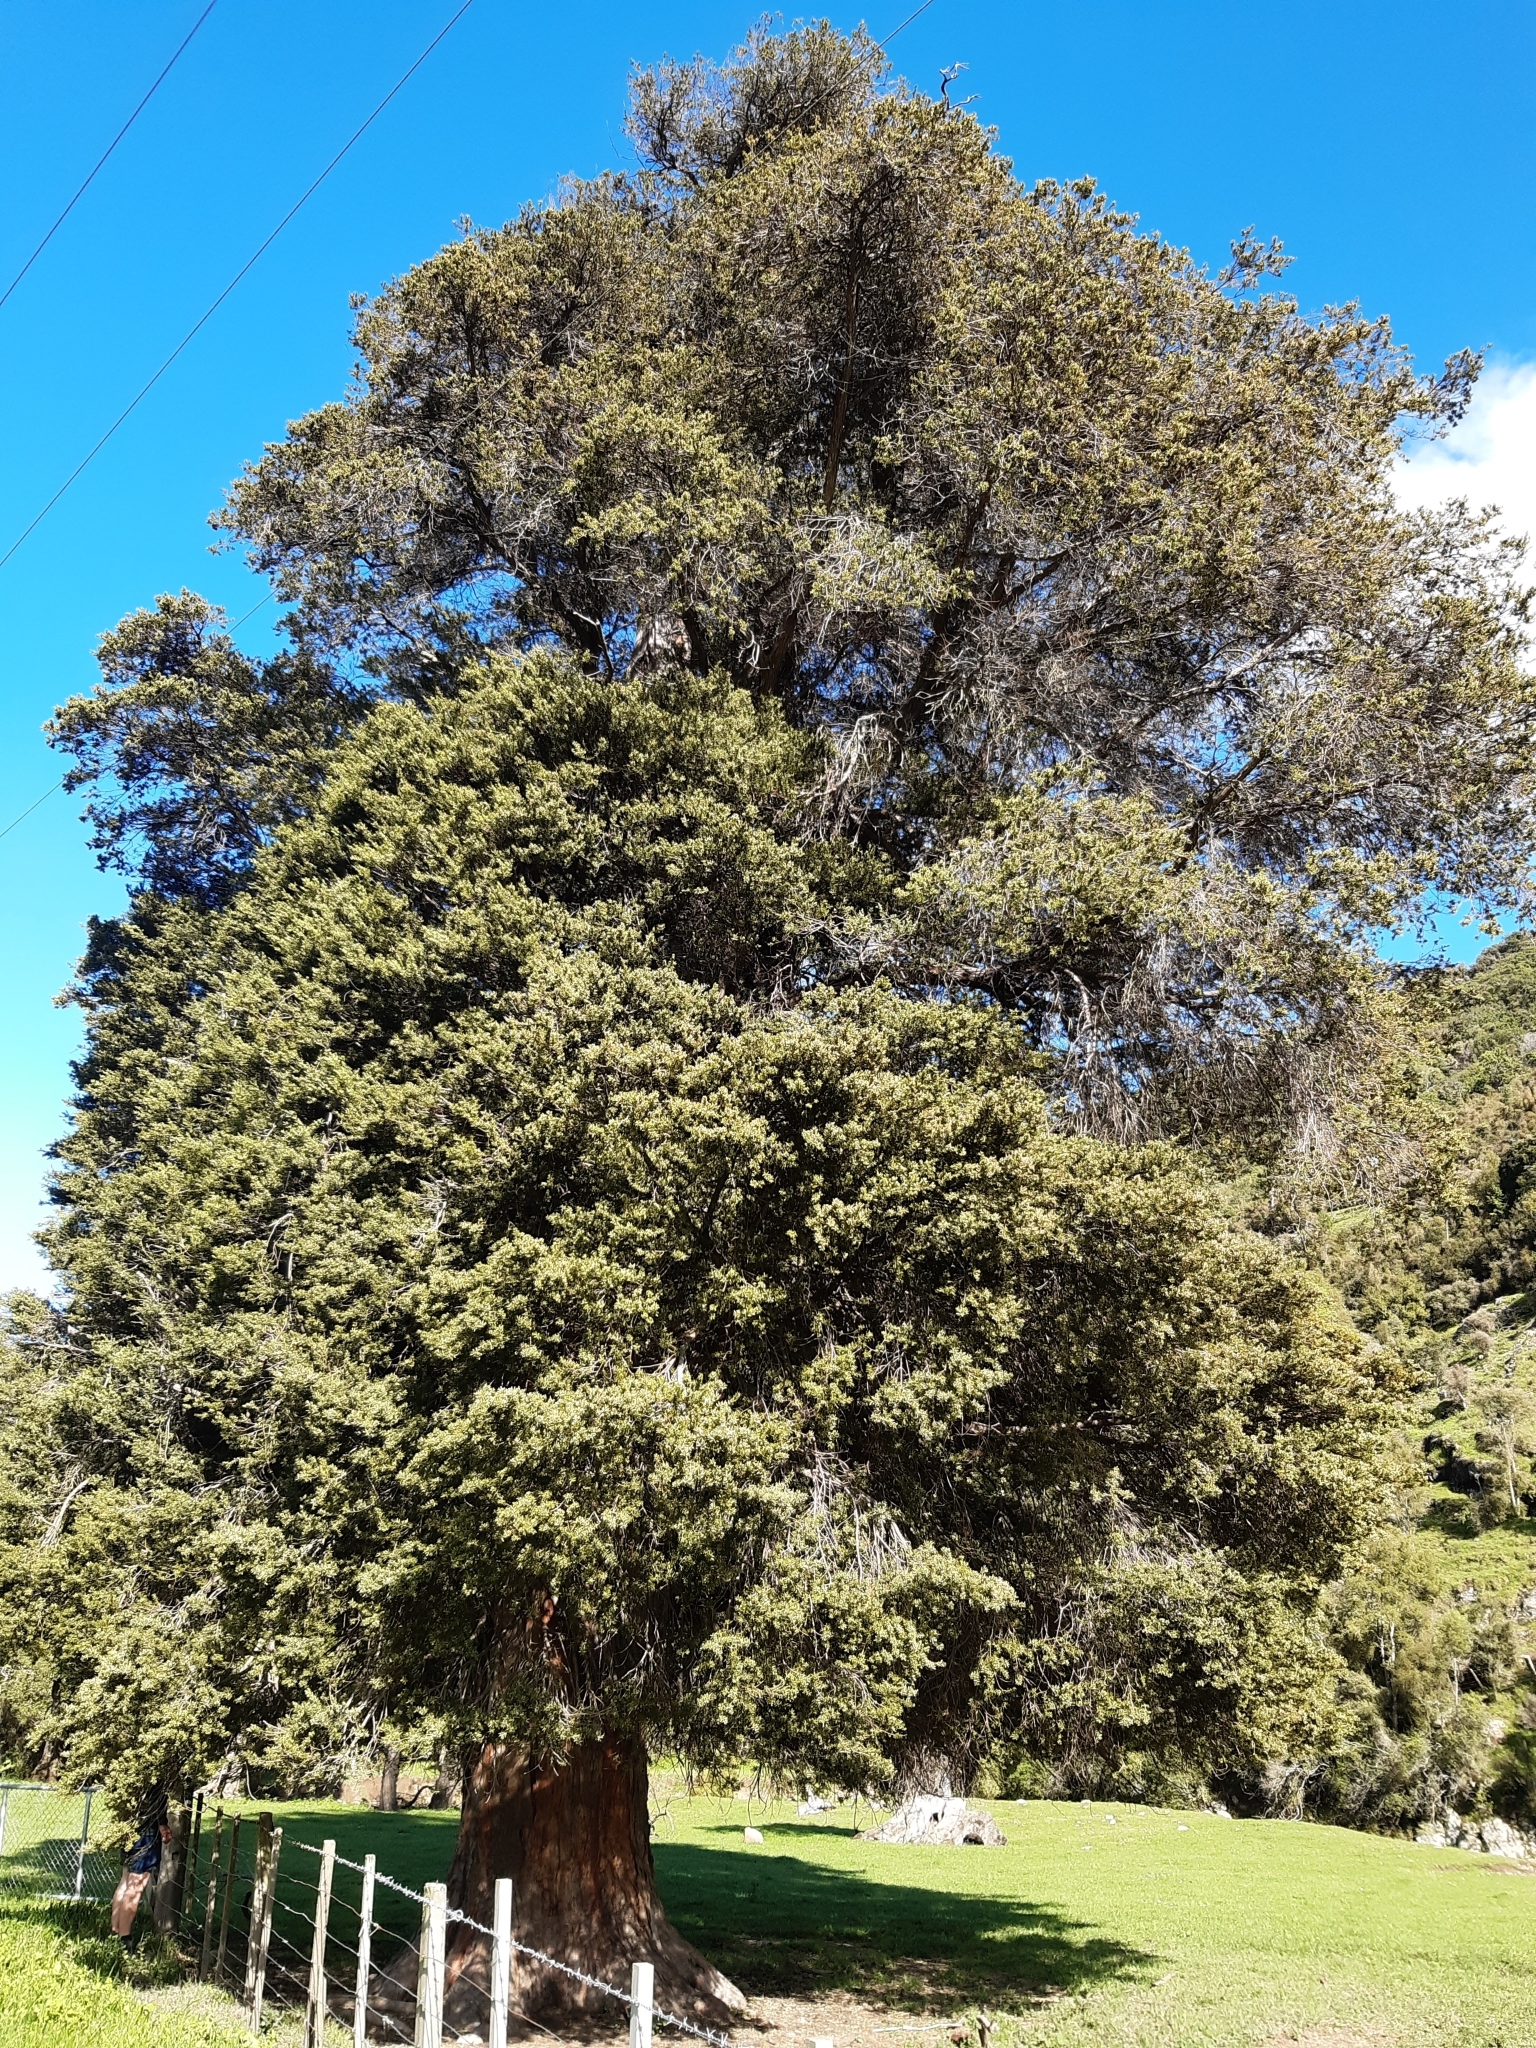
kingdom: Plantae
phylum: Tracheophyta
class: Pinopsida
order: Pinales
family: Podocarpaceae
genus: Podocarpus
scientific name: Podocarpus totara
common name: Totara
